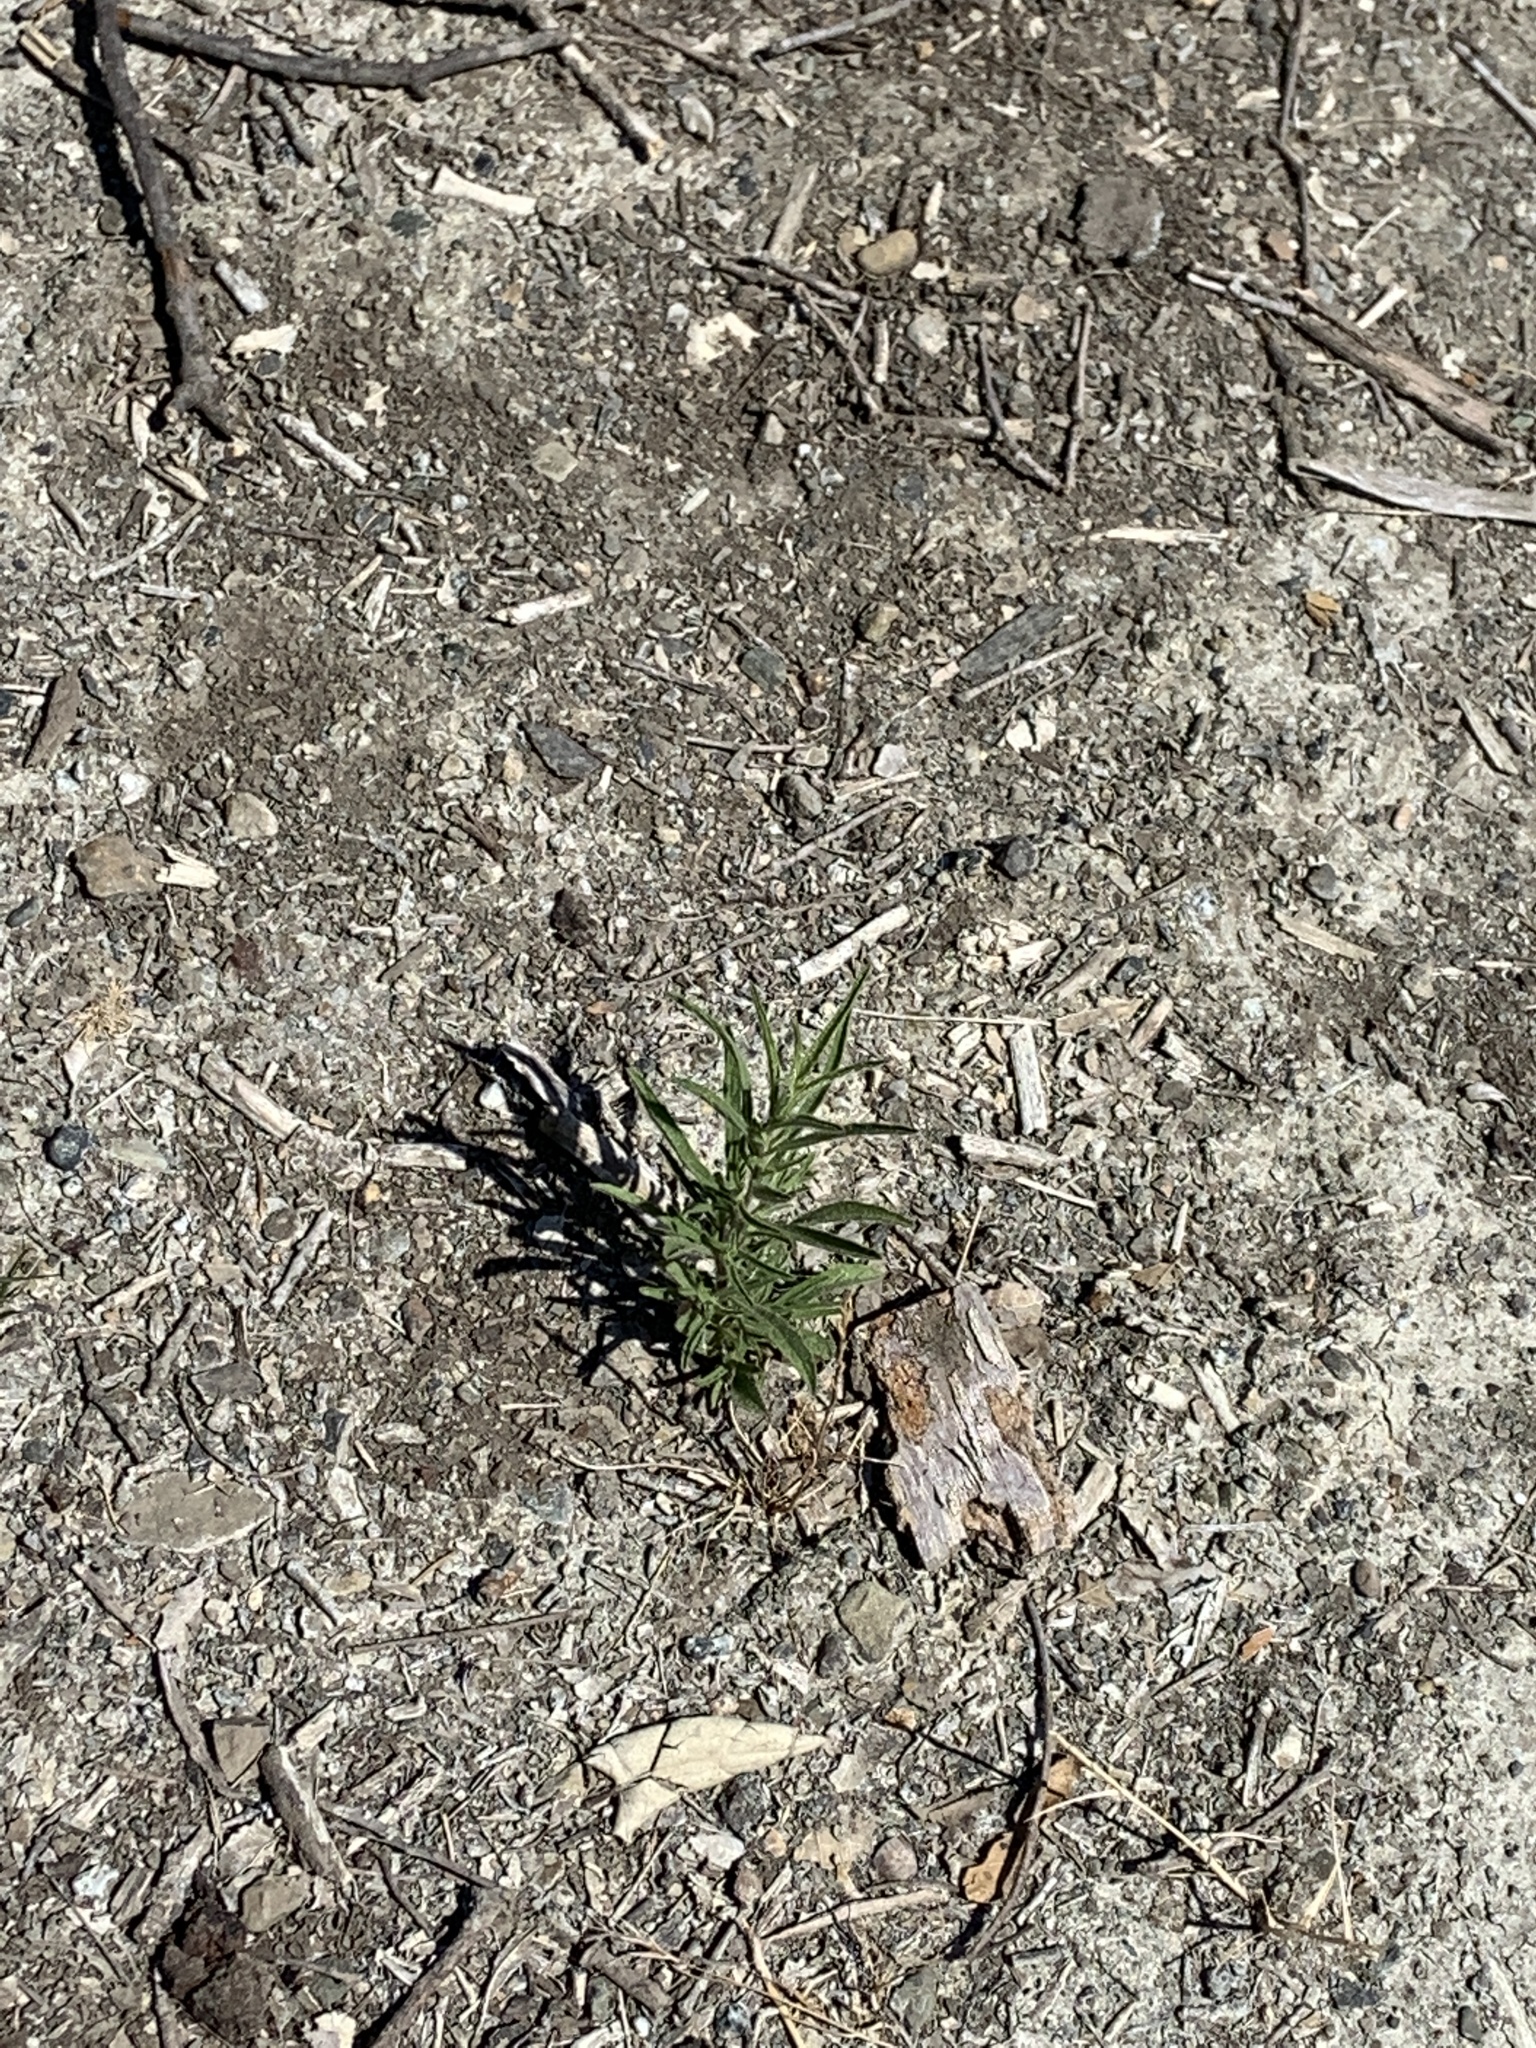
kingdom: Plantae
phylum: Tracheophyta
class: Magnoliopsida
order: Asterales
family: Asteraceae
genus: Dittrichia
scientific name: Dittrichia graveolens
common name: Stinking fleabane
